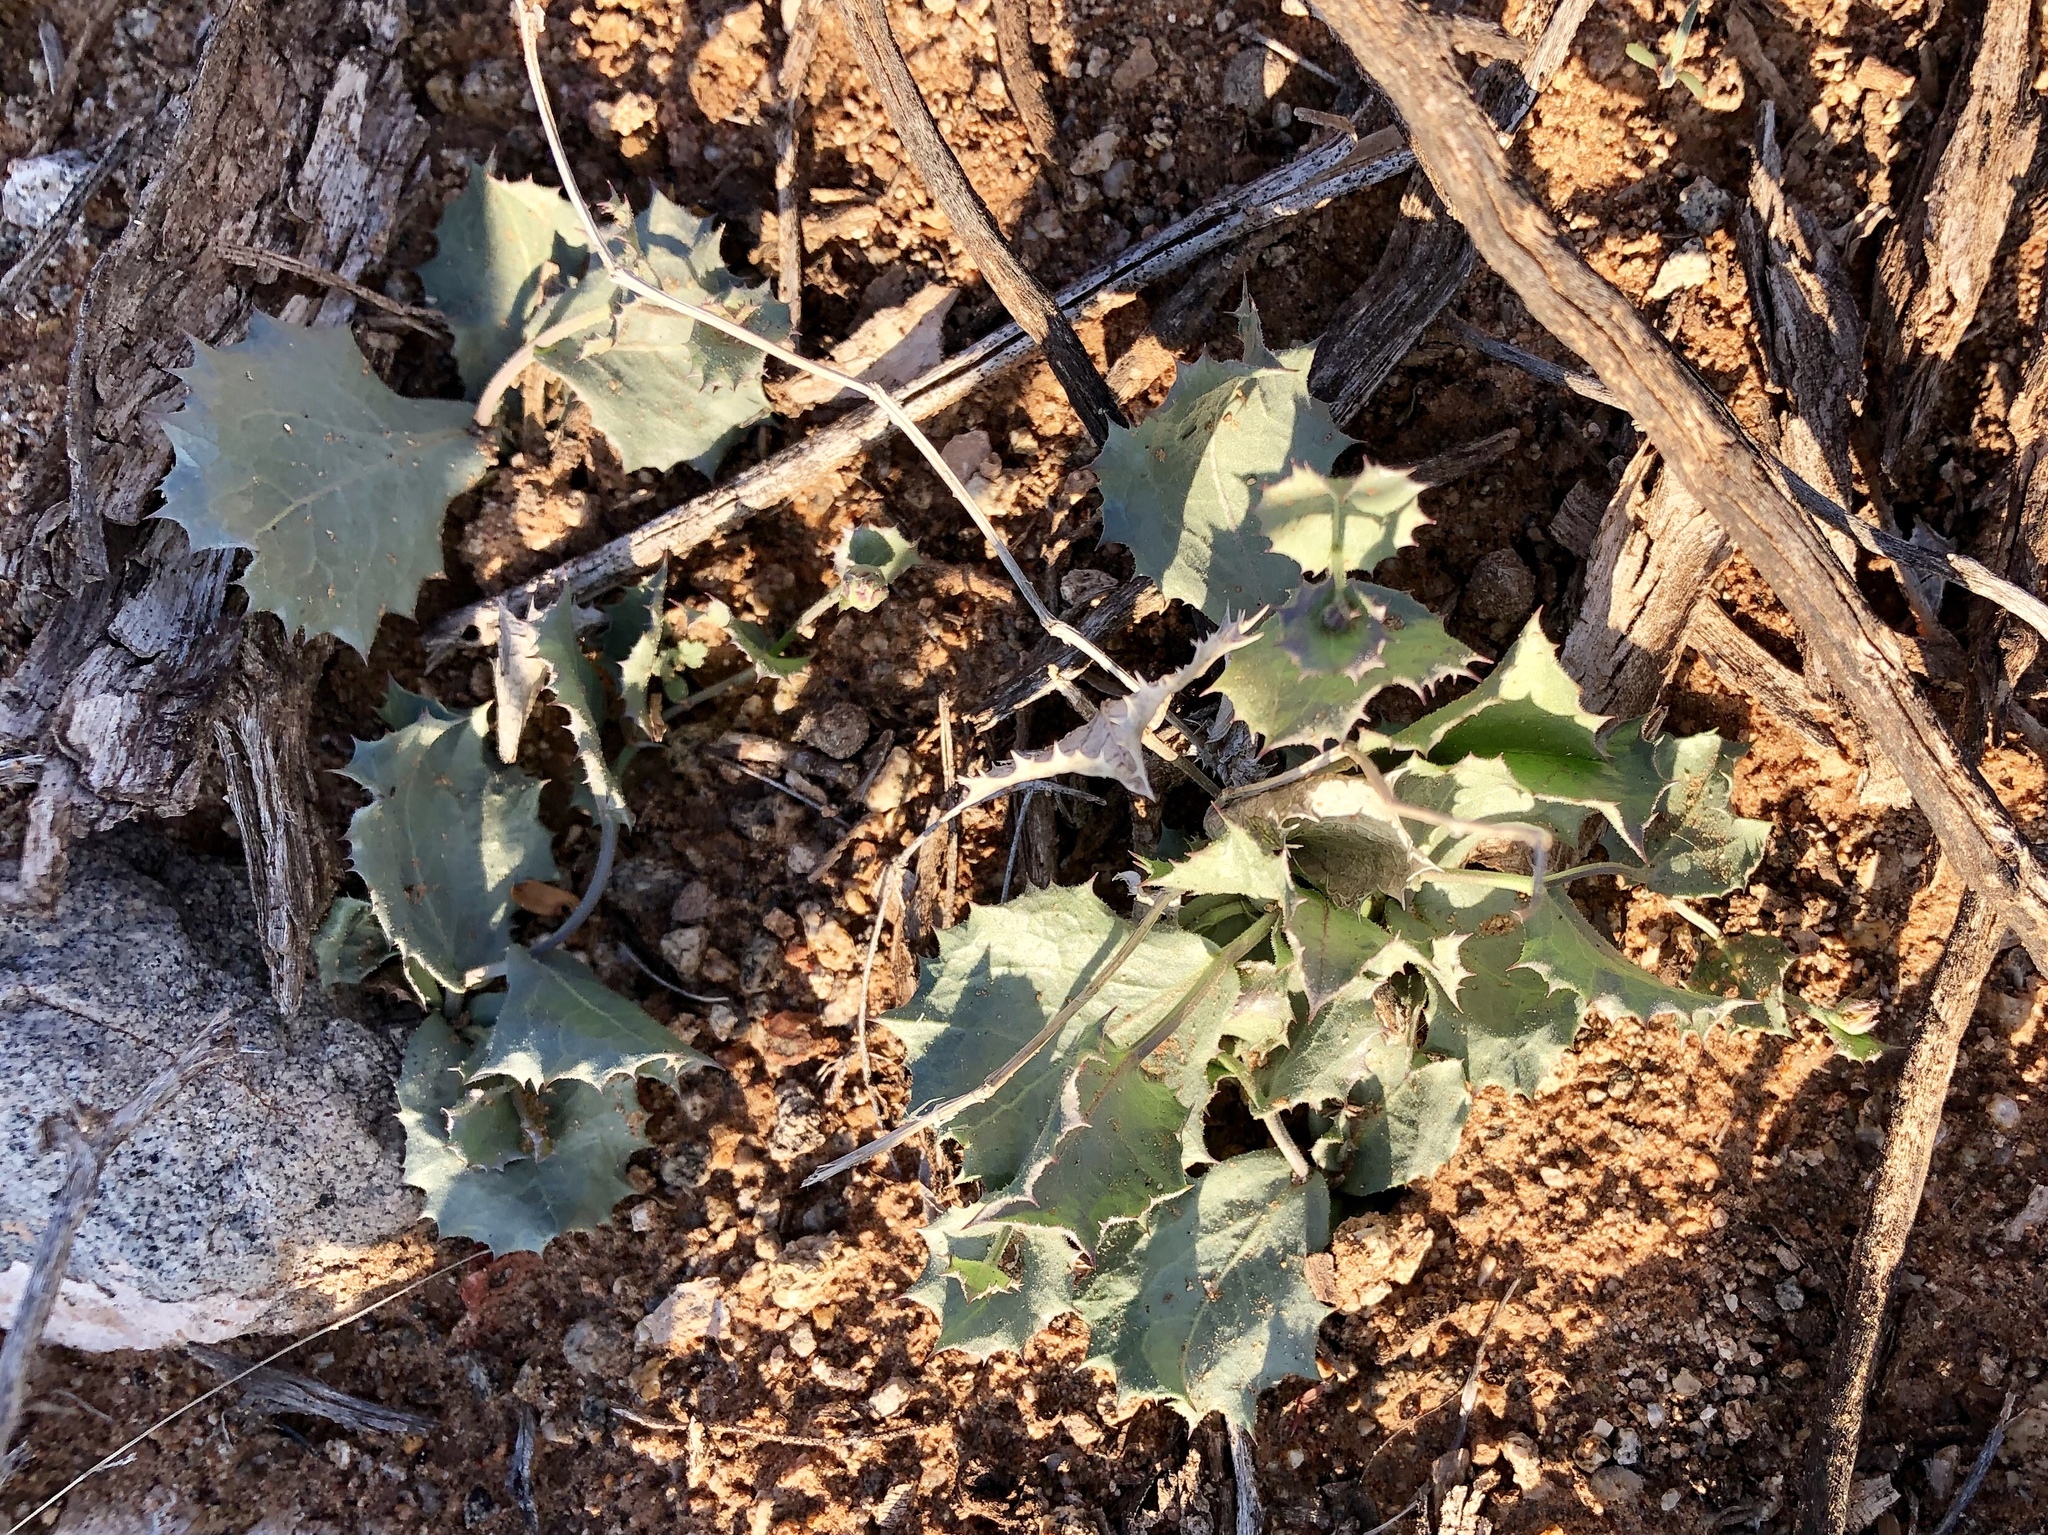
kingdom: Plantae
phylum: Tracheophyta
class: Magnoliopsida
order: Asterales
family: Asteraceae
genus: Acourtia
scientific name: Acourtia nana
